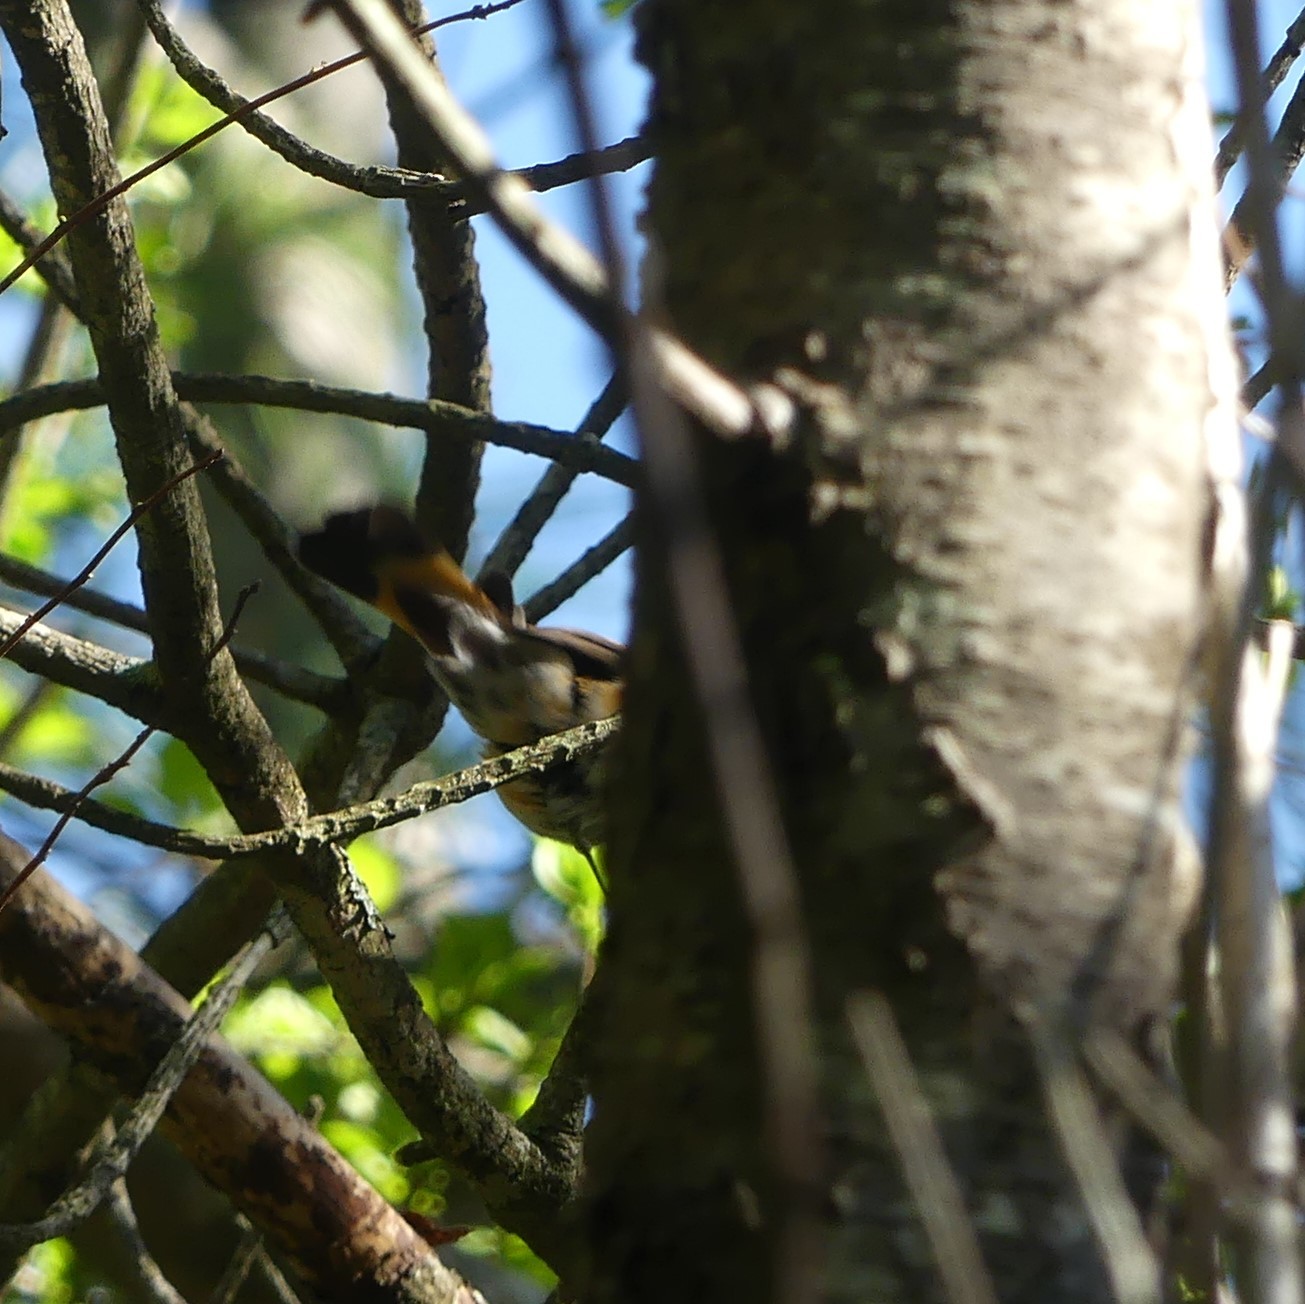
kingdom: Animalia
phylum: Chordata
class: Aves
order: Passeriformes
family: Parulidae
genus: Setophaga
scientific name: Setophaga ruticilla
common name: American redstart
